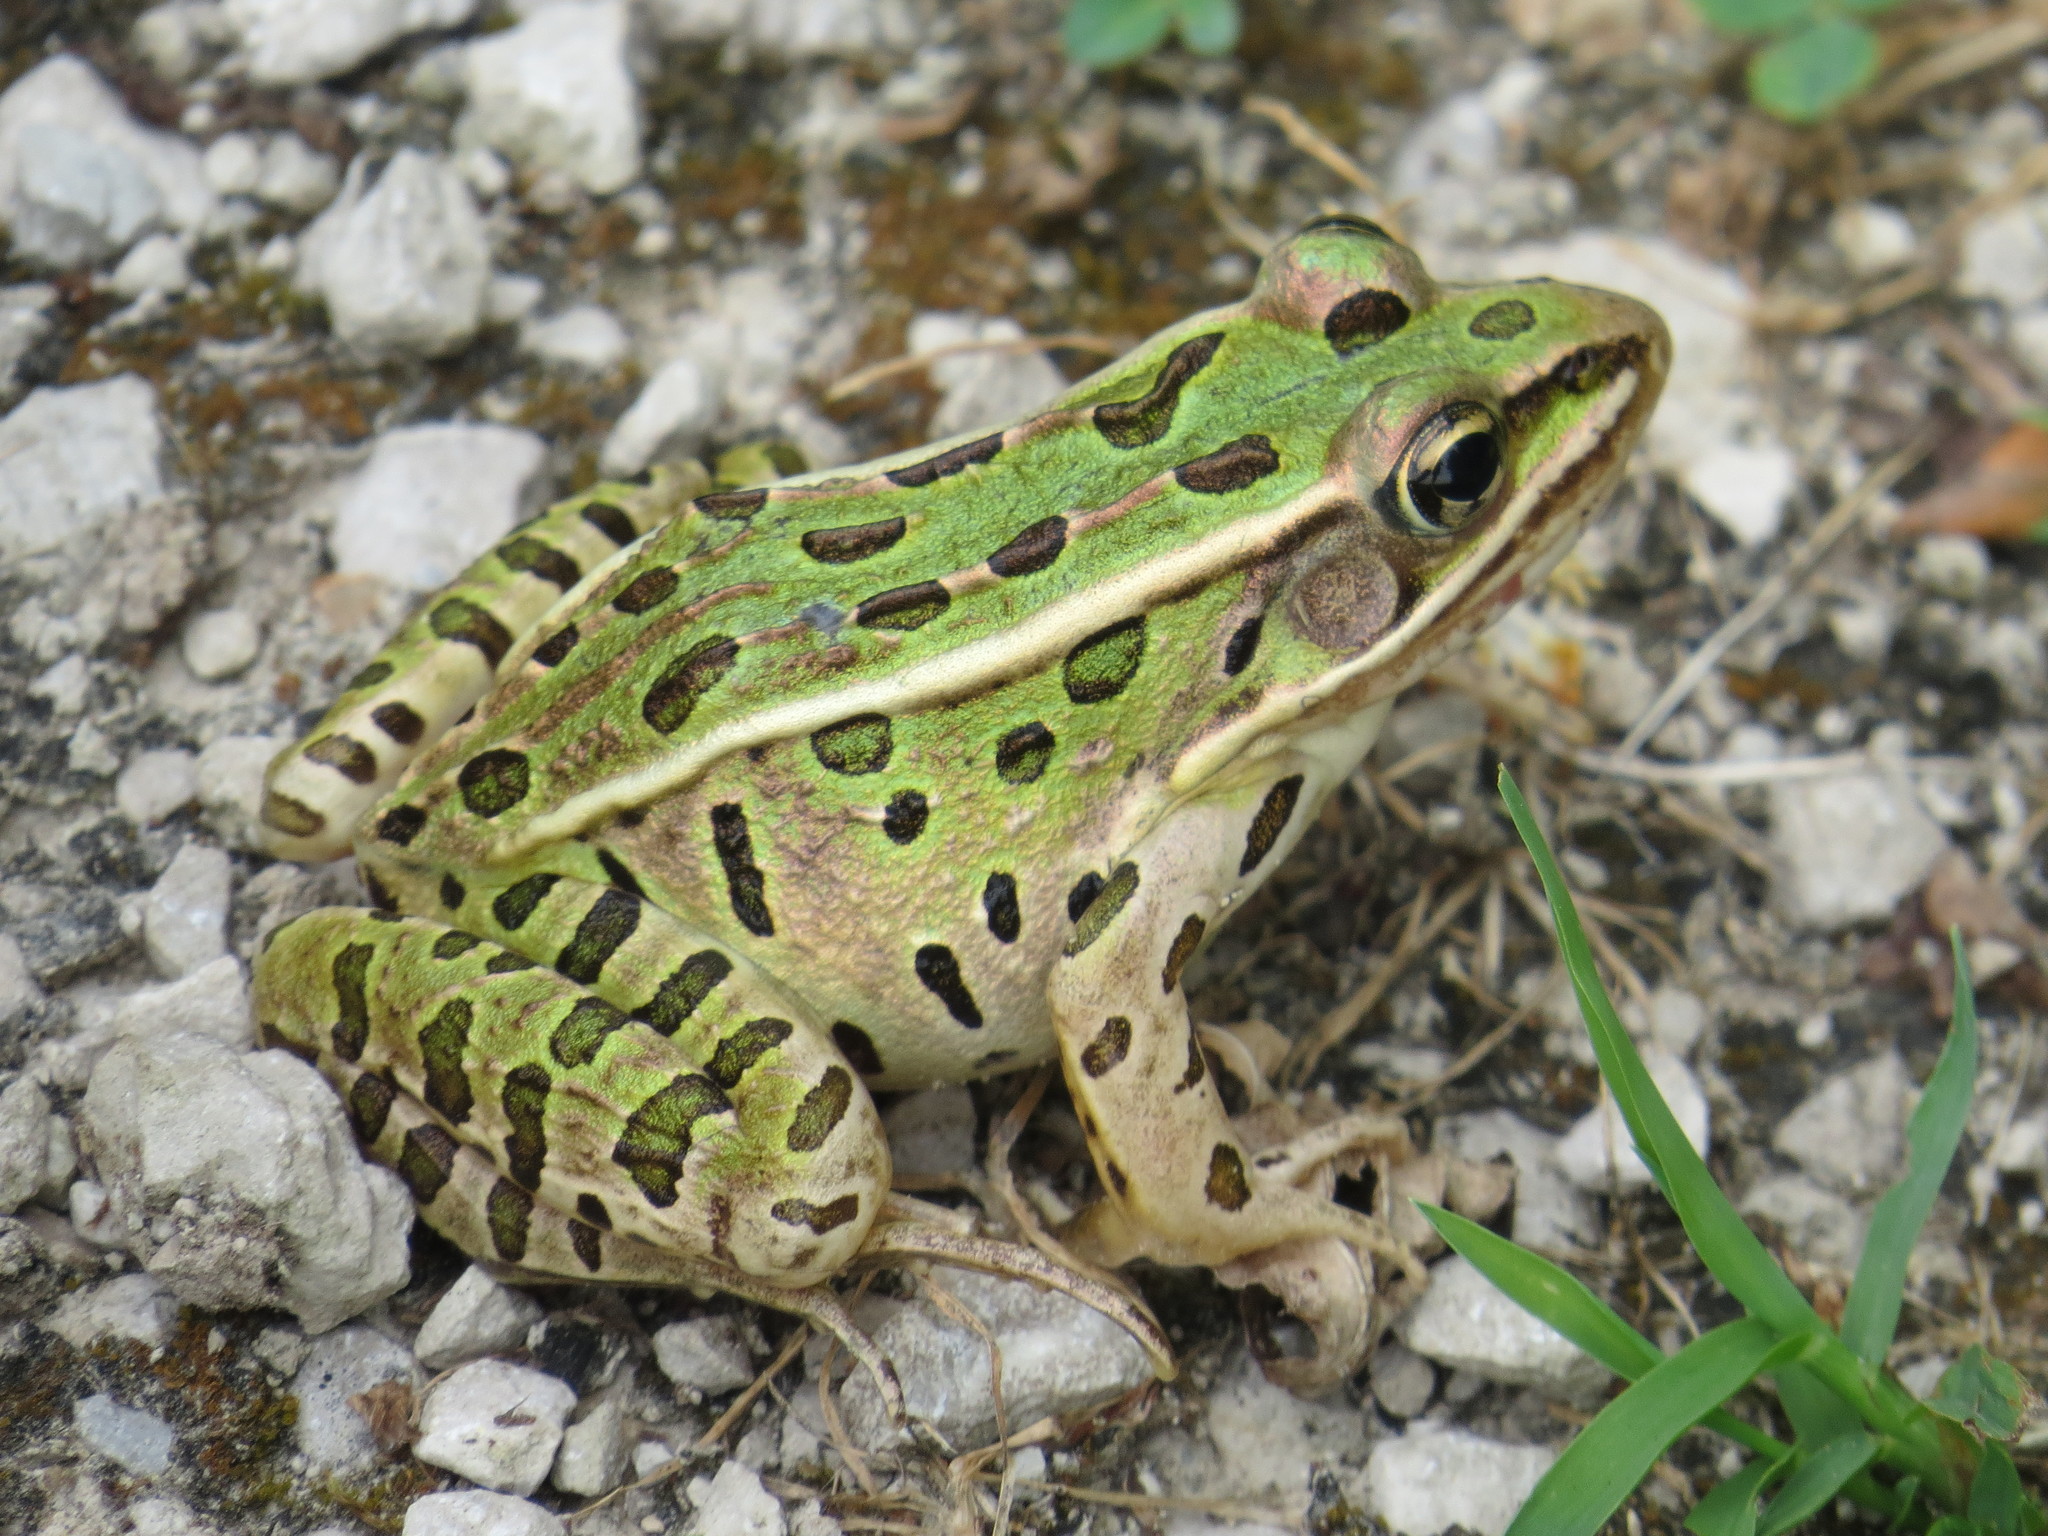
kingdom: Animalia
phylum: Chordata
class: Amphibia
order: Anura
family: Ranidae
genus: Lithobates
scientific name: Lithobates pipiens
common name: Northern leopard frog
